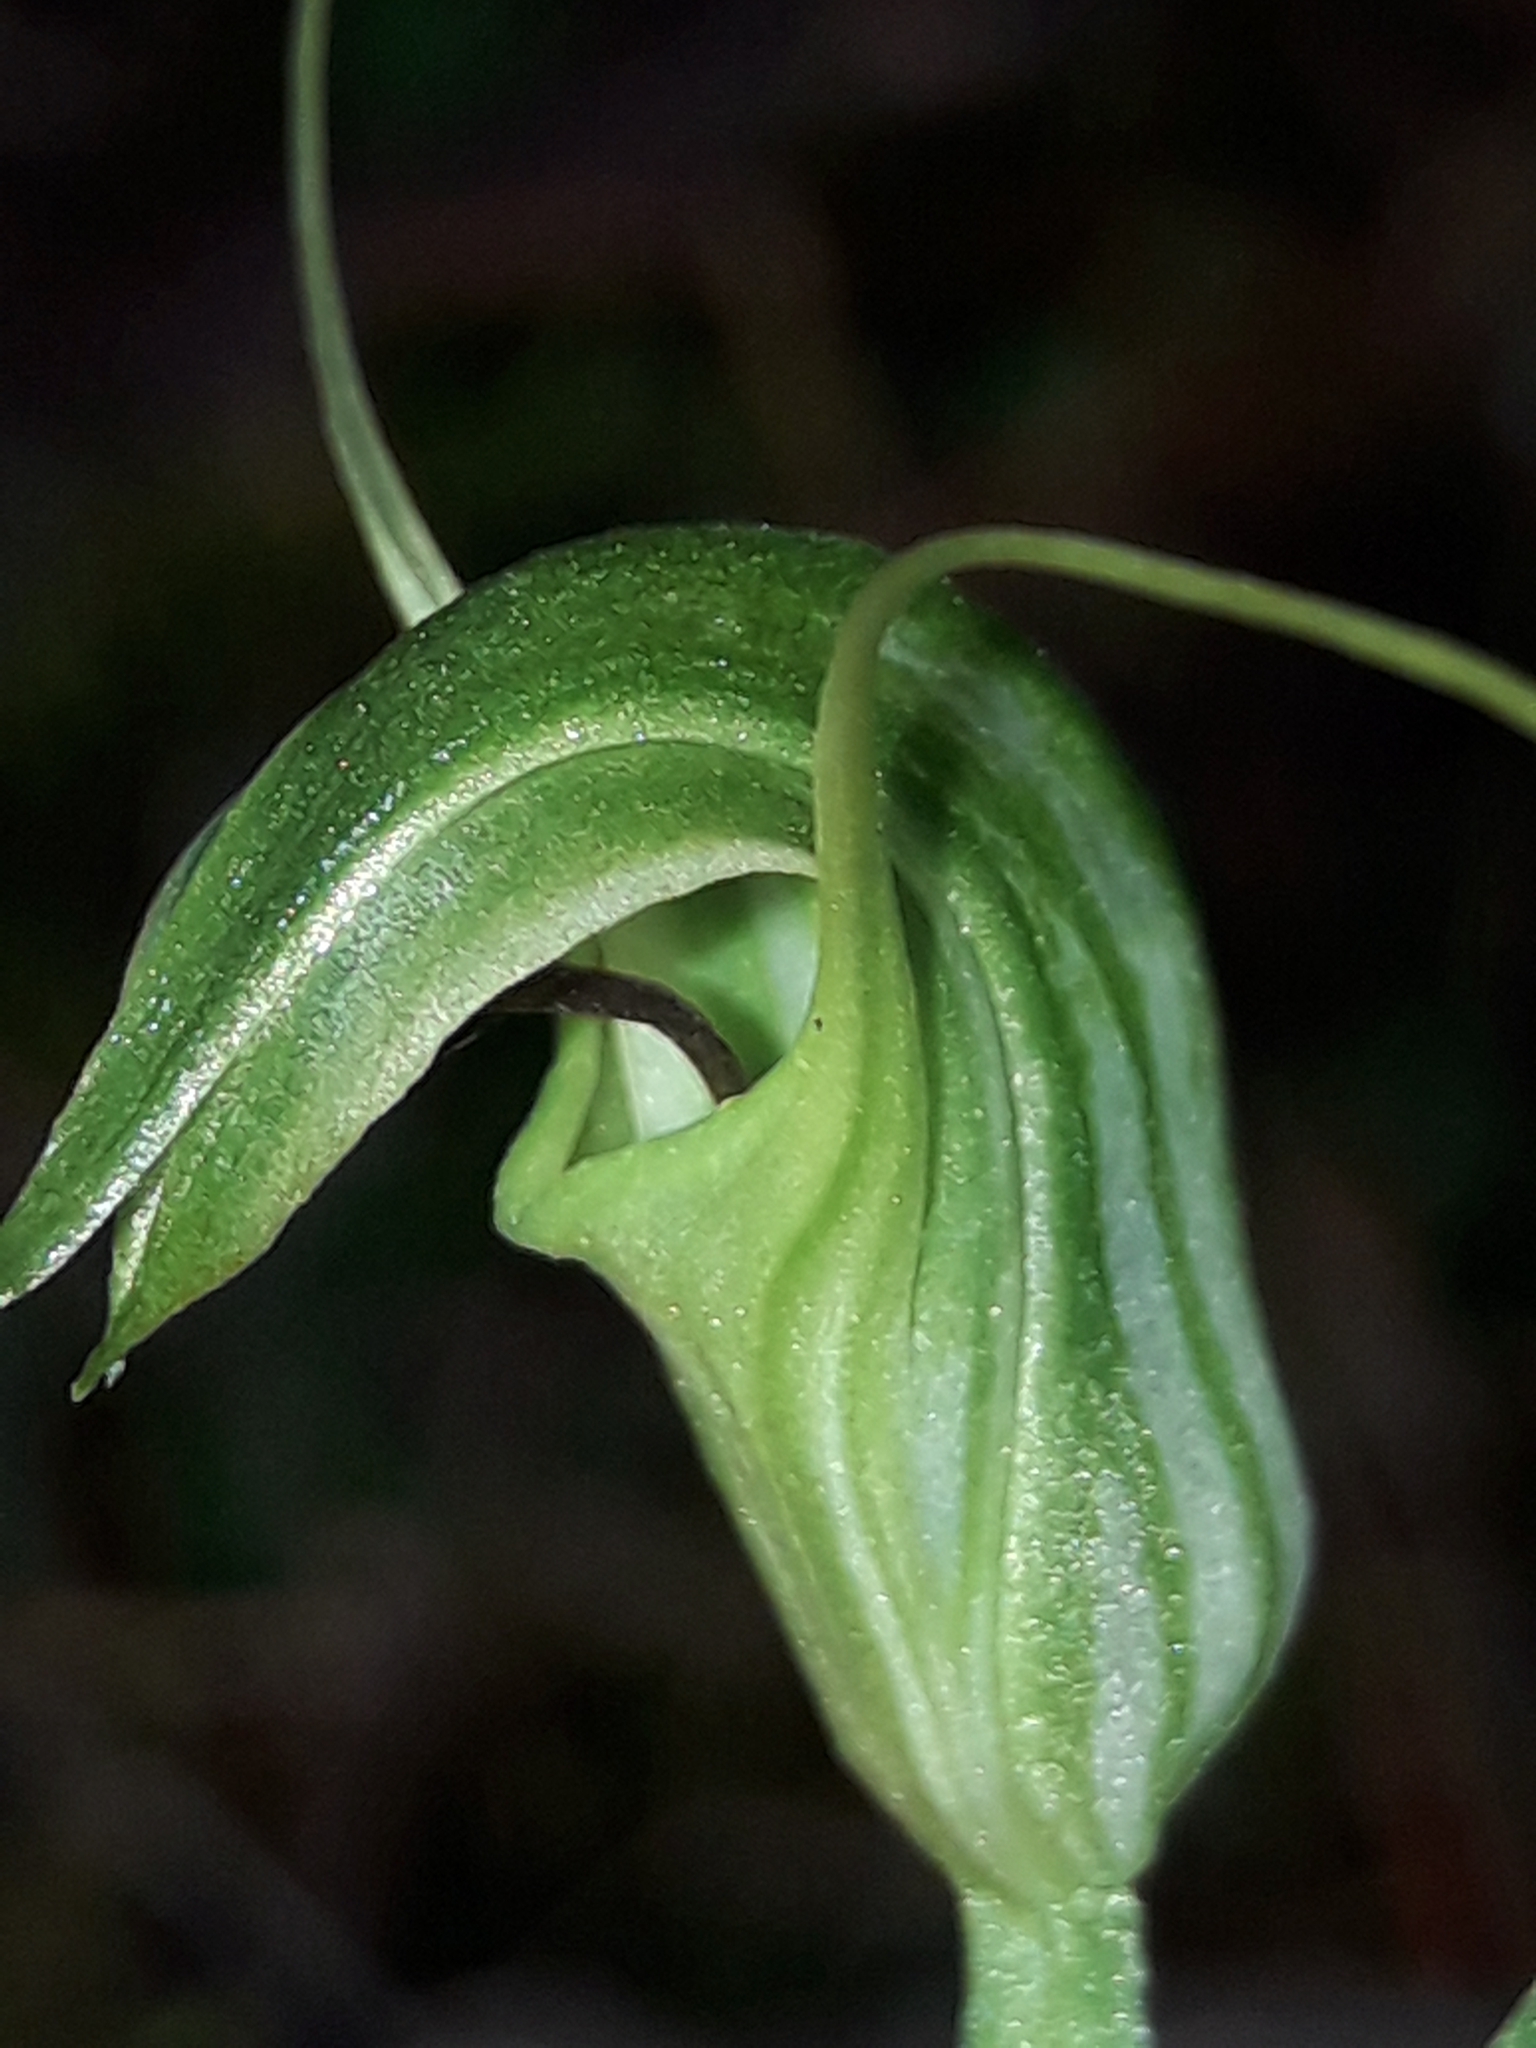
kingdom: Plantae
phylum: Tracheophyta
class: Liliopsida
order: Asparagales
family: Orchidaceae
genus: Pterostylis
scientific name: Pterostylis trullifolia
